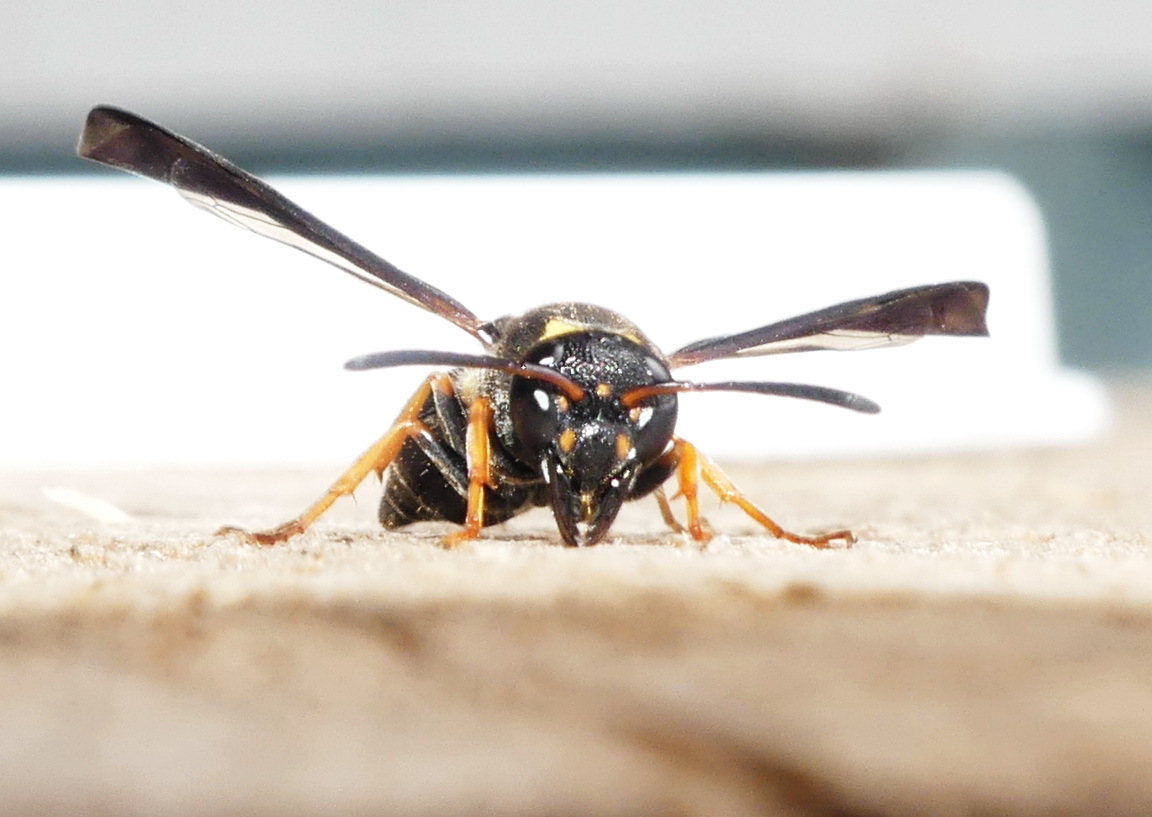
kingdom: Animalia
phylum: Arthropoda
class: Insecta
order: Hymenoptera
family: Vespidae
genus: Ancistrocerus
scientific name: Ancistrocerus unifasciatus
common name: One-banded mason wasp
